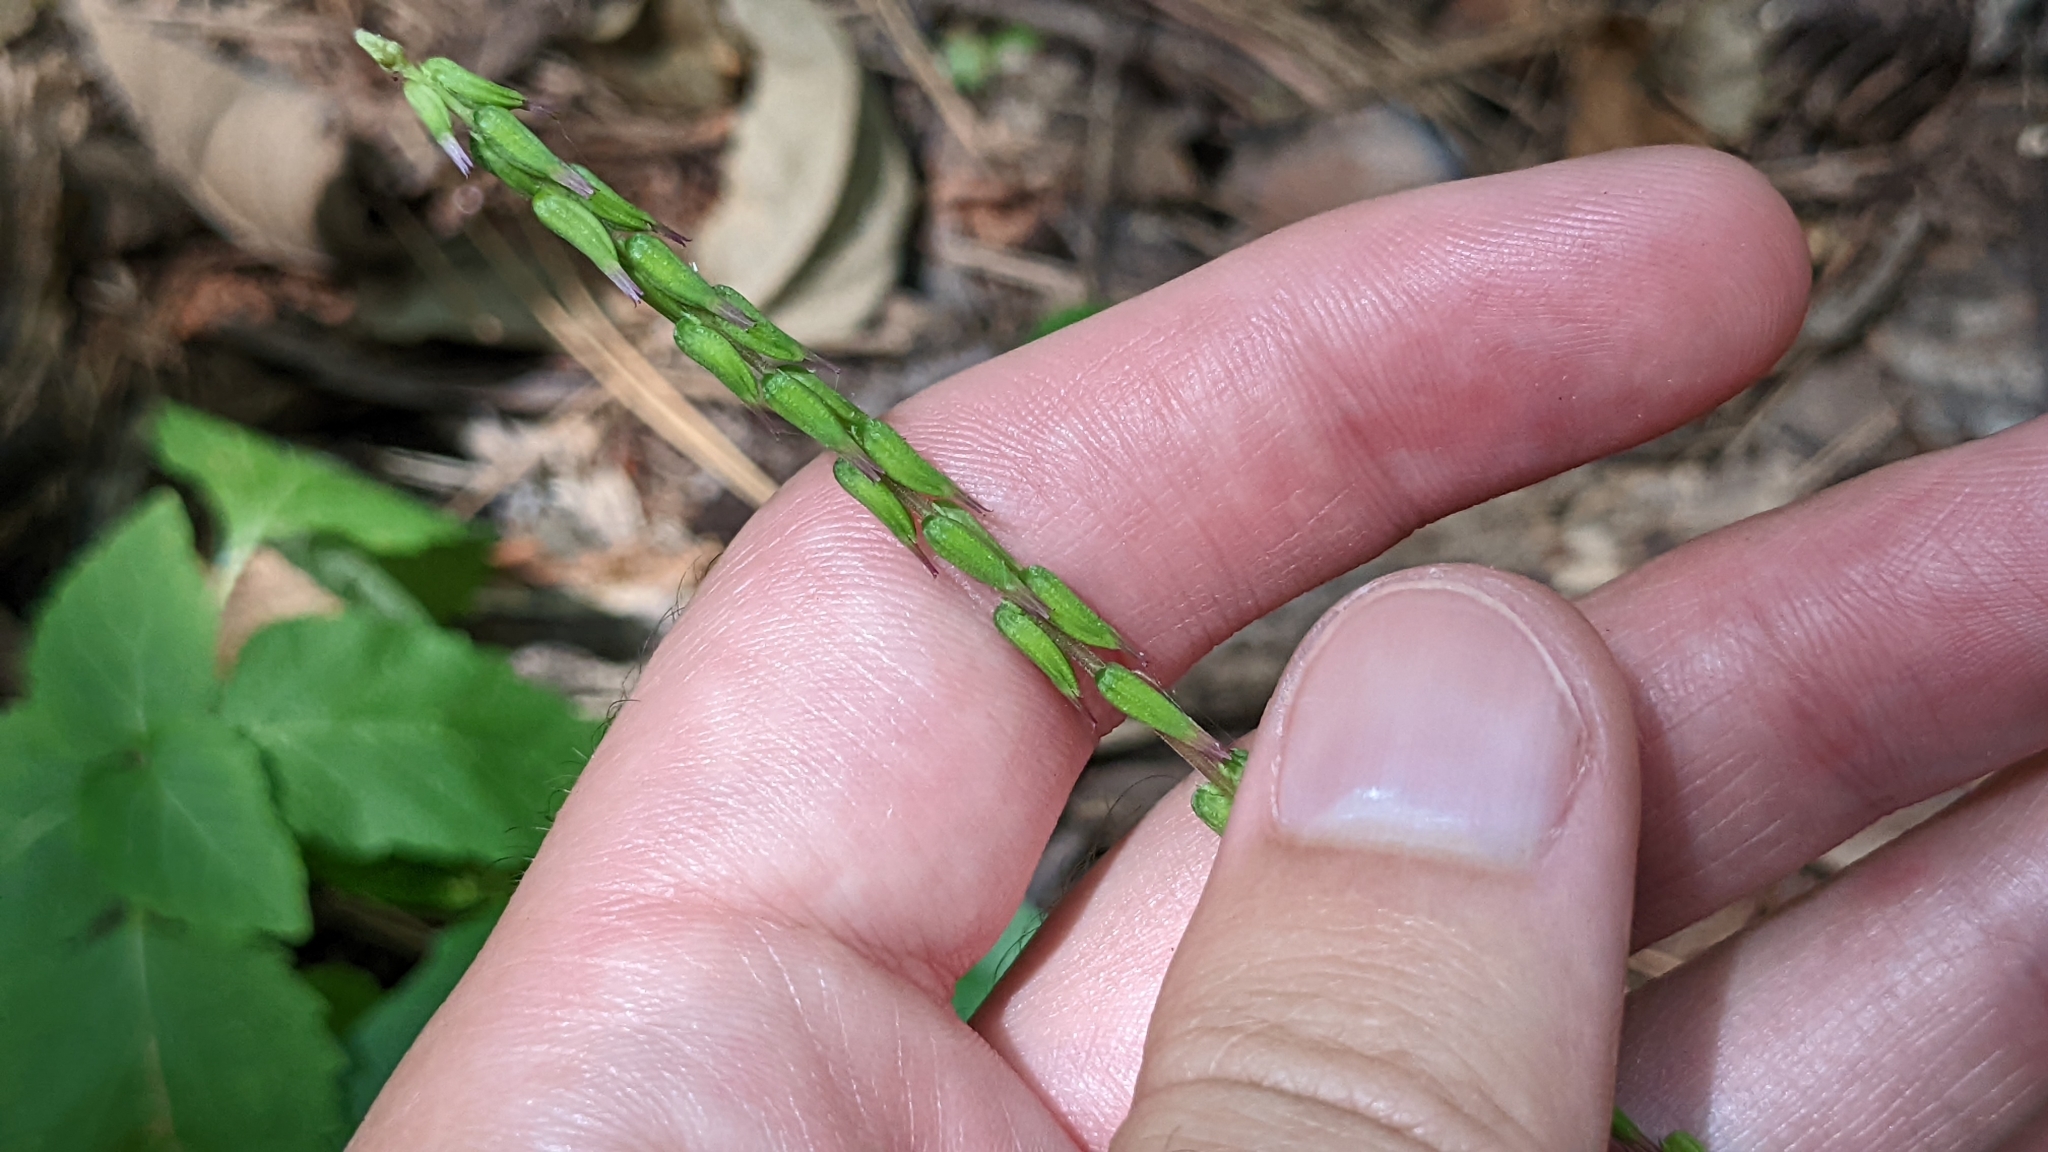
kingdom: Plantae
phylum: Tracheophyta
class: Magnoliopsida
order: Lamiales
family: Phrymaceae
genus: Phryma
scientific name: Phryma leptostachya
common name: American lopseed
